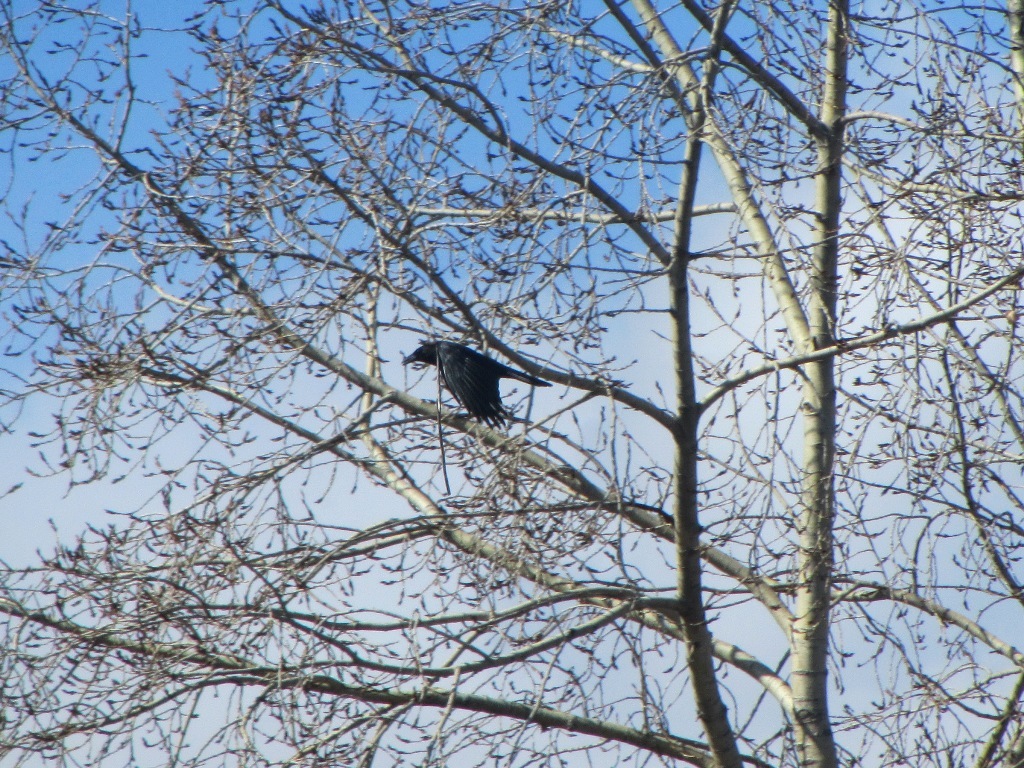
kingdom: Animalia
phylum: Chordata
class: Aves
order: Passeriformes
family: Corvidae
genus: Corvus
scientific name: Corvus corone
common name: Carrion crow
